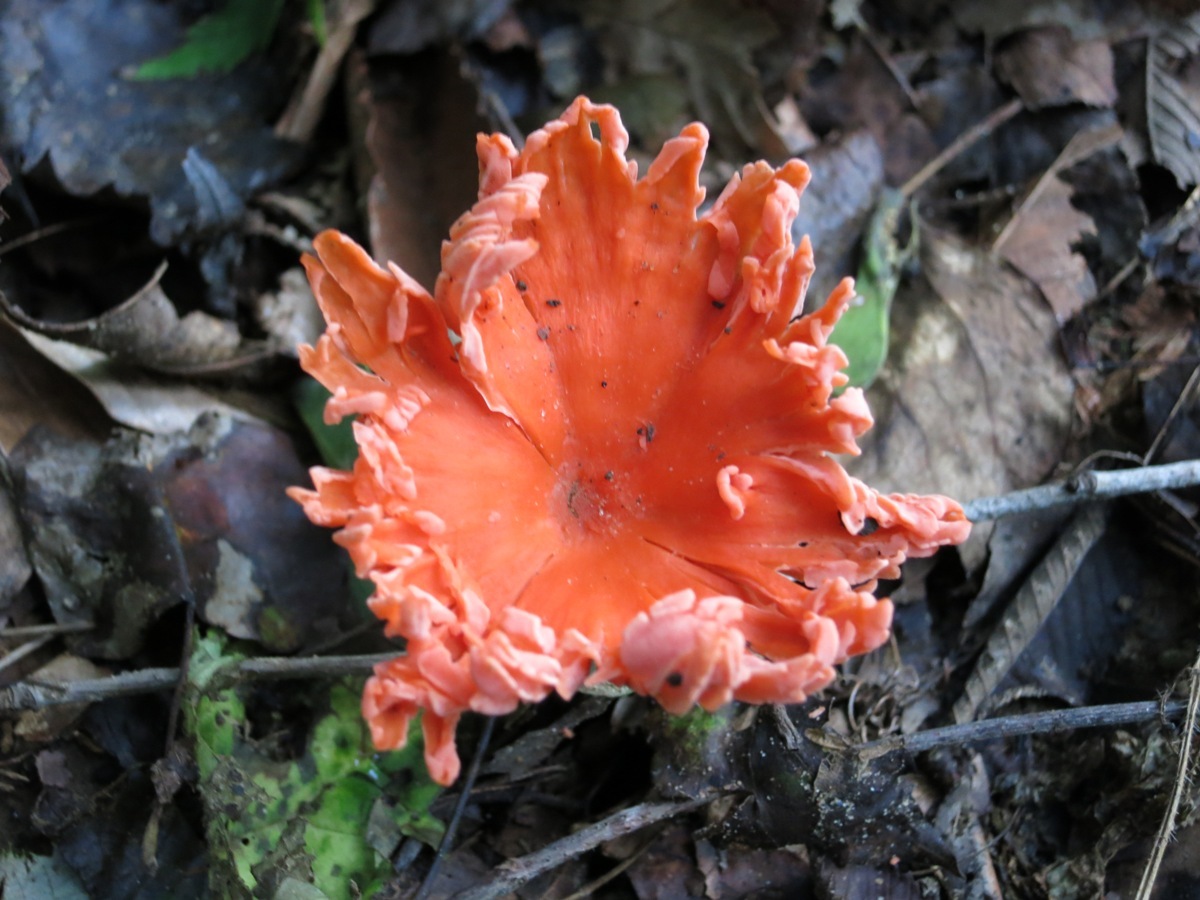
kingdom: Fungi
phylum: Basidiomycota
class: Agaricomycetes
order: Cantharellales
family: Hydnaceae
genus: Cantharellus
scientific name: Cantharellus cinnabarinus
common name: Cinnabar chanterelle
